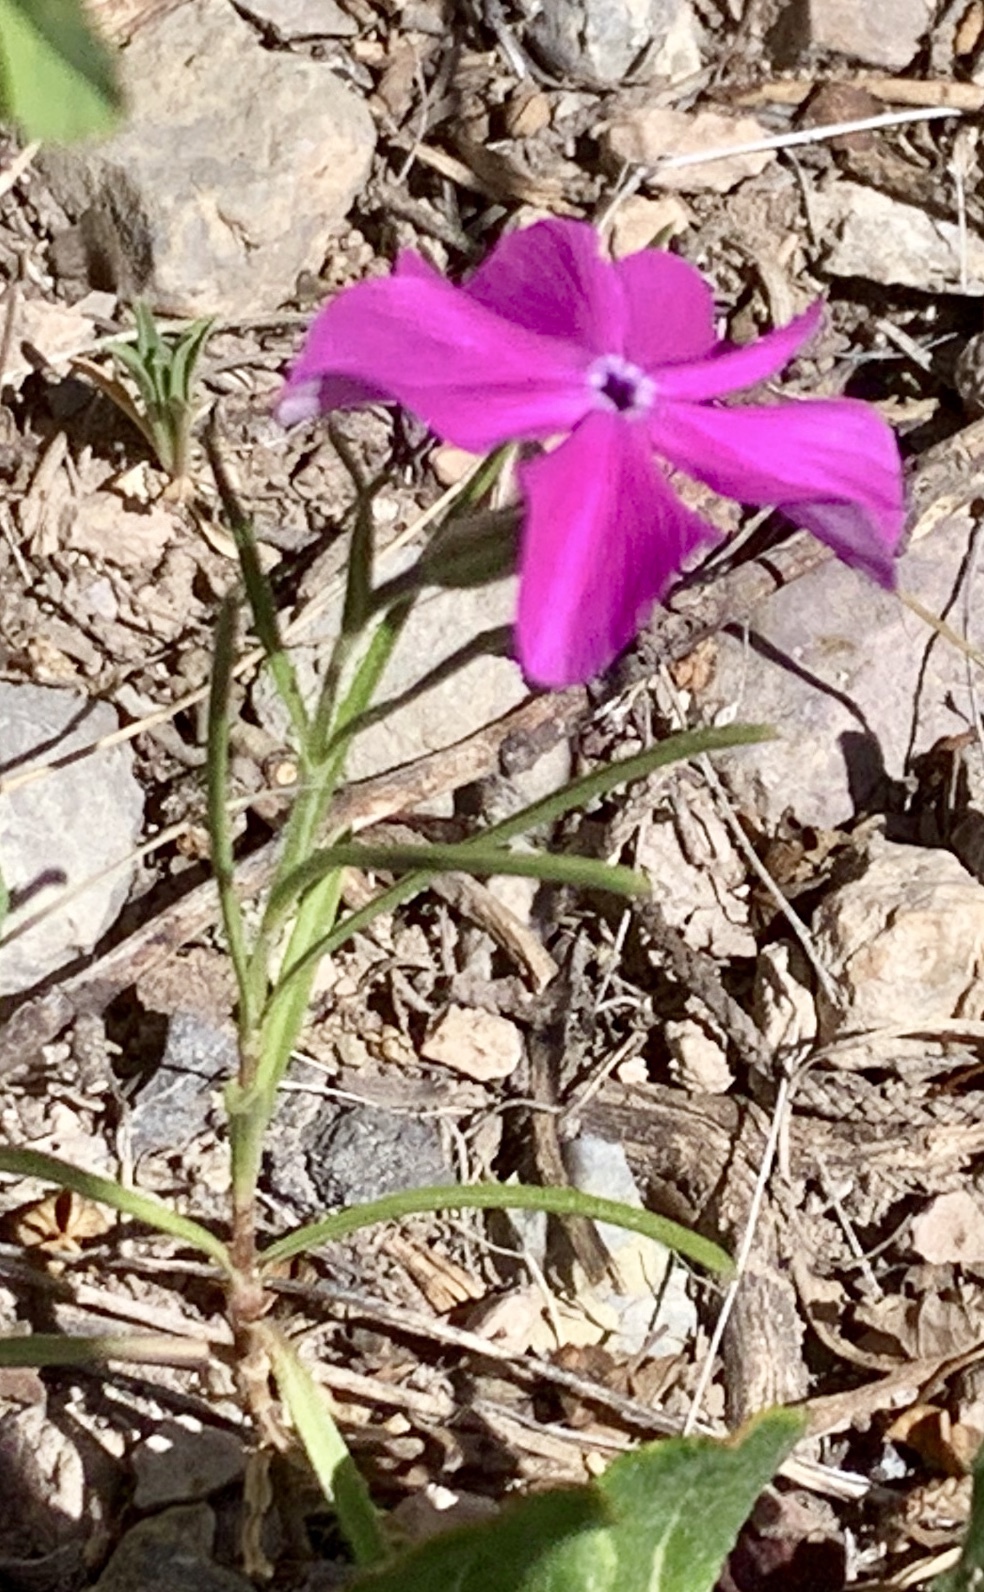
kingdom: Plantae
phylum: Tracheophyta
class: Magnoliopsida
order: Ericales
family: Polemoniaceae
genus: Phlox
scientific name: Phlox nana
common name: Santa fe phlox
